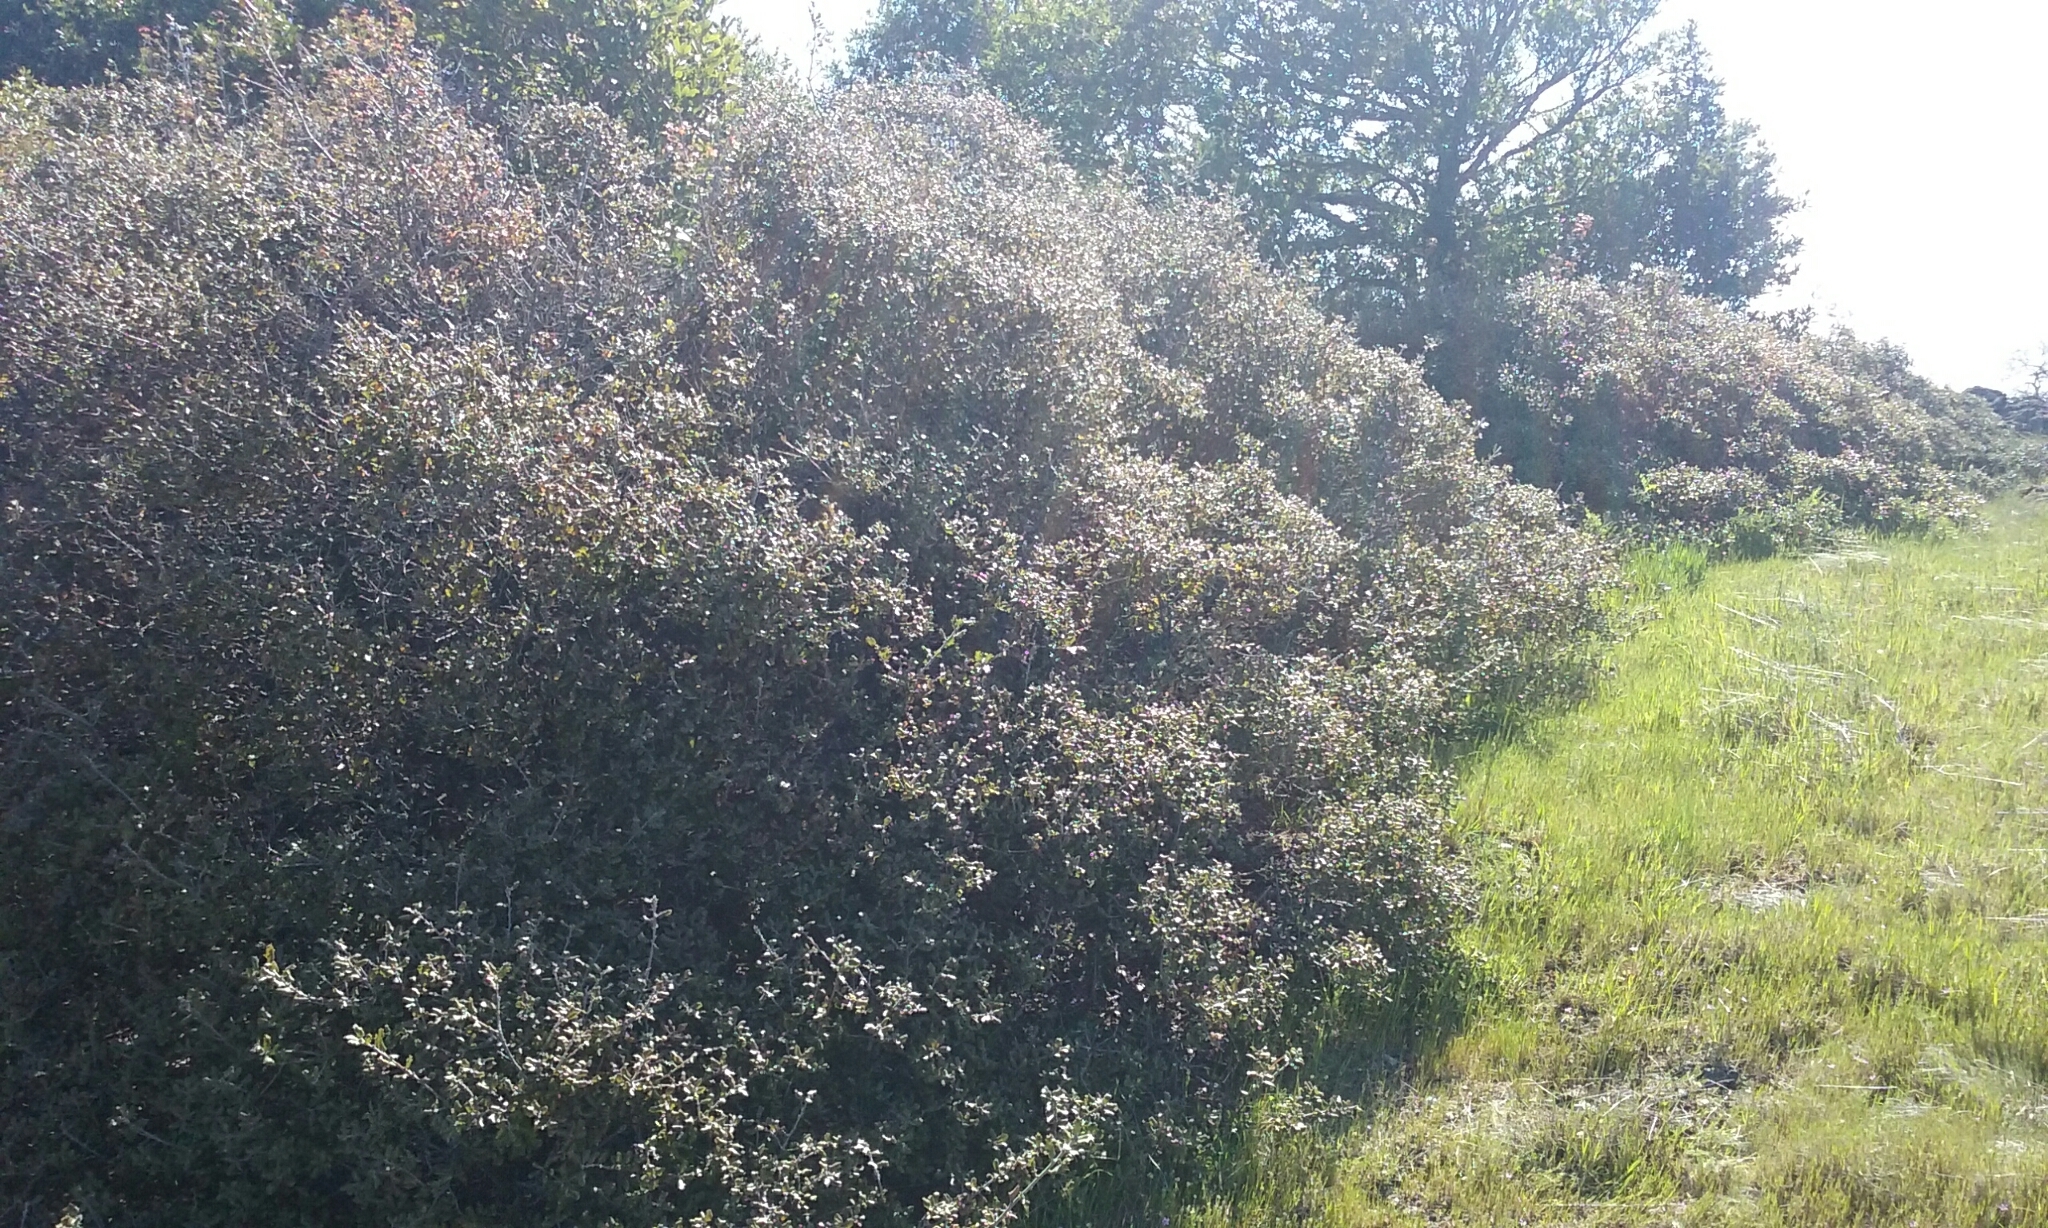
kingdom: Plantae
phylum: Tracheophyta
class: Magnoliopsida
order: Fagales
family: Fagaceae
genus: Quercus
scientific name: Quercus durata
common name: Leather oak
